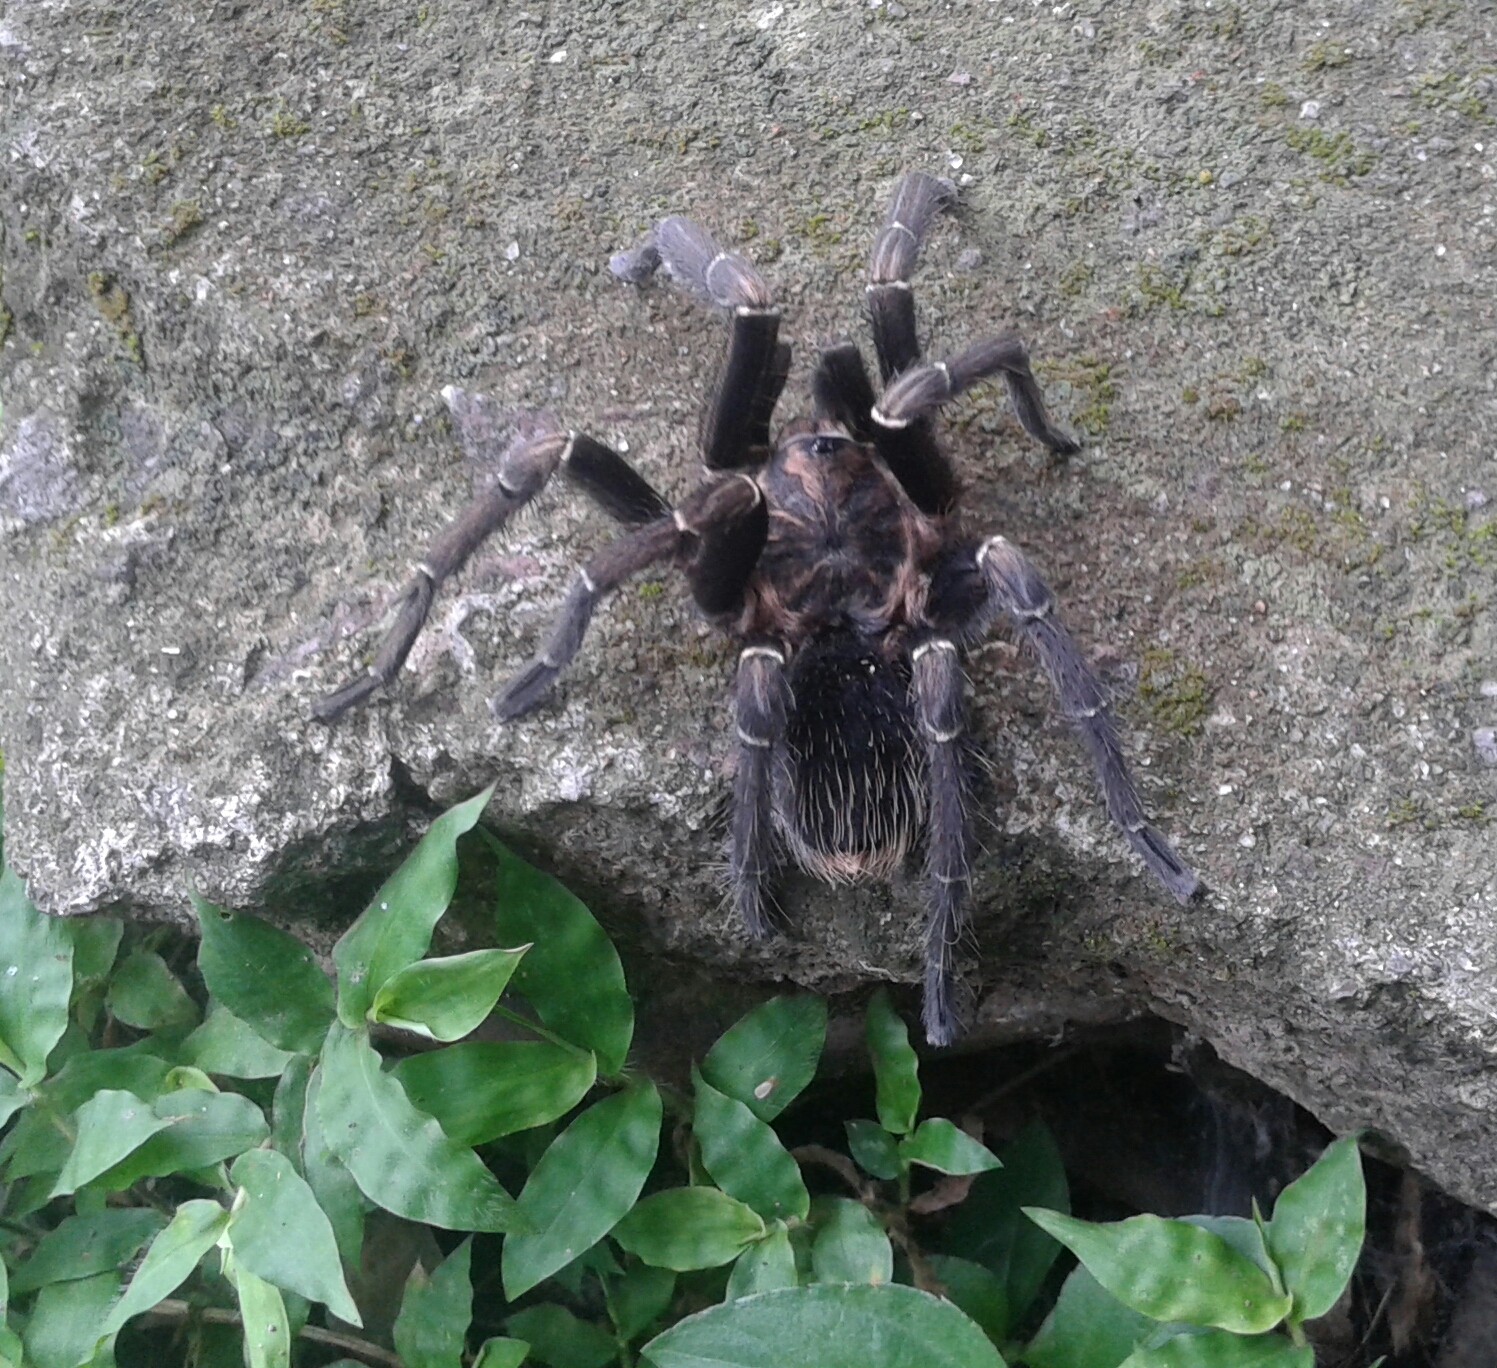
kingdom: Animalia
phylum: Arthropoda
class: Arachnida
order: Araneae
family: Theraphosidae
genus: Aphonopelma
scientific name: Aphonopelma seemanni
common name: Tarantula spiders
